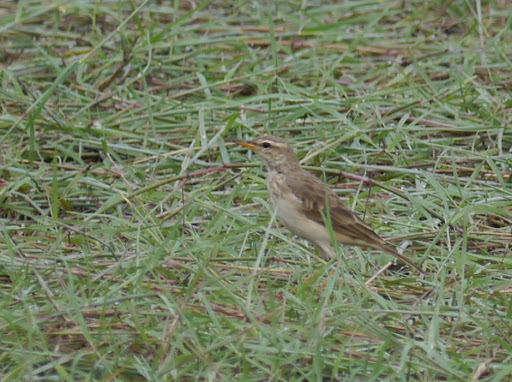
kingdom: Animalia
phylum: Chordata
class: Aves
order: Passeriformes
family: Motacillidae
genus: Anthus
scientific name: Anthus pallidiventris
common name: Long-legged pipit
